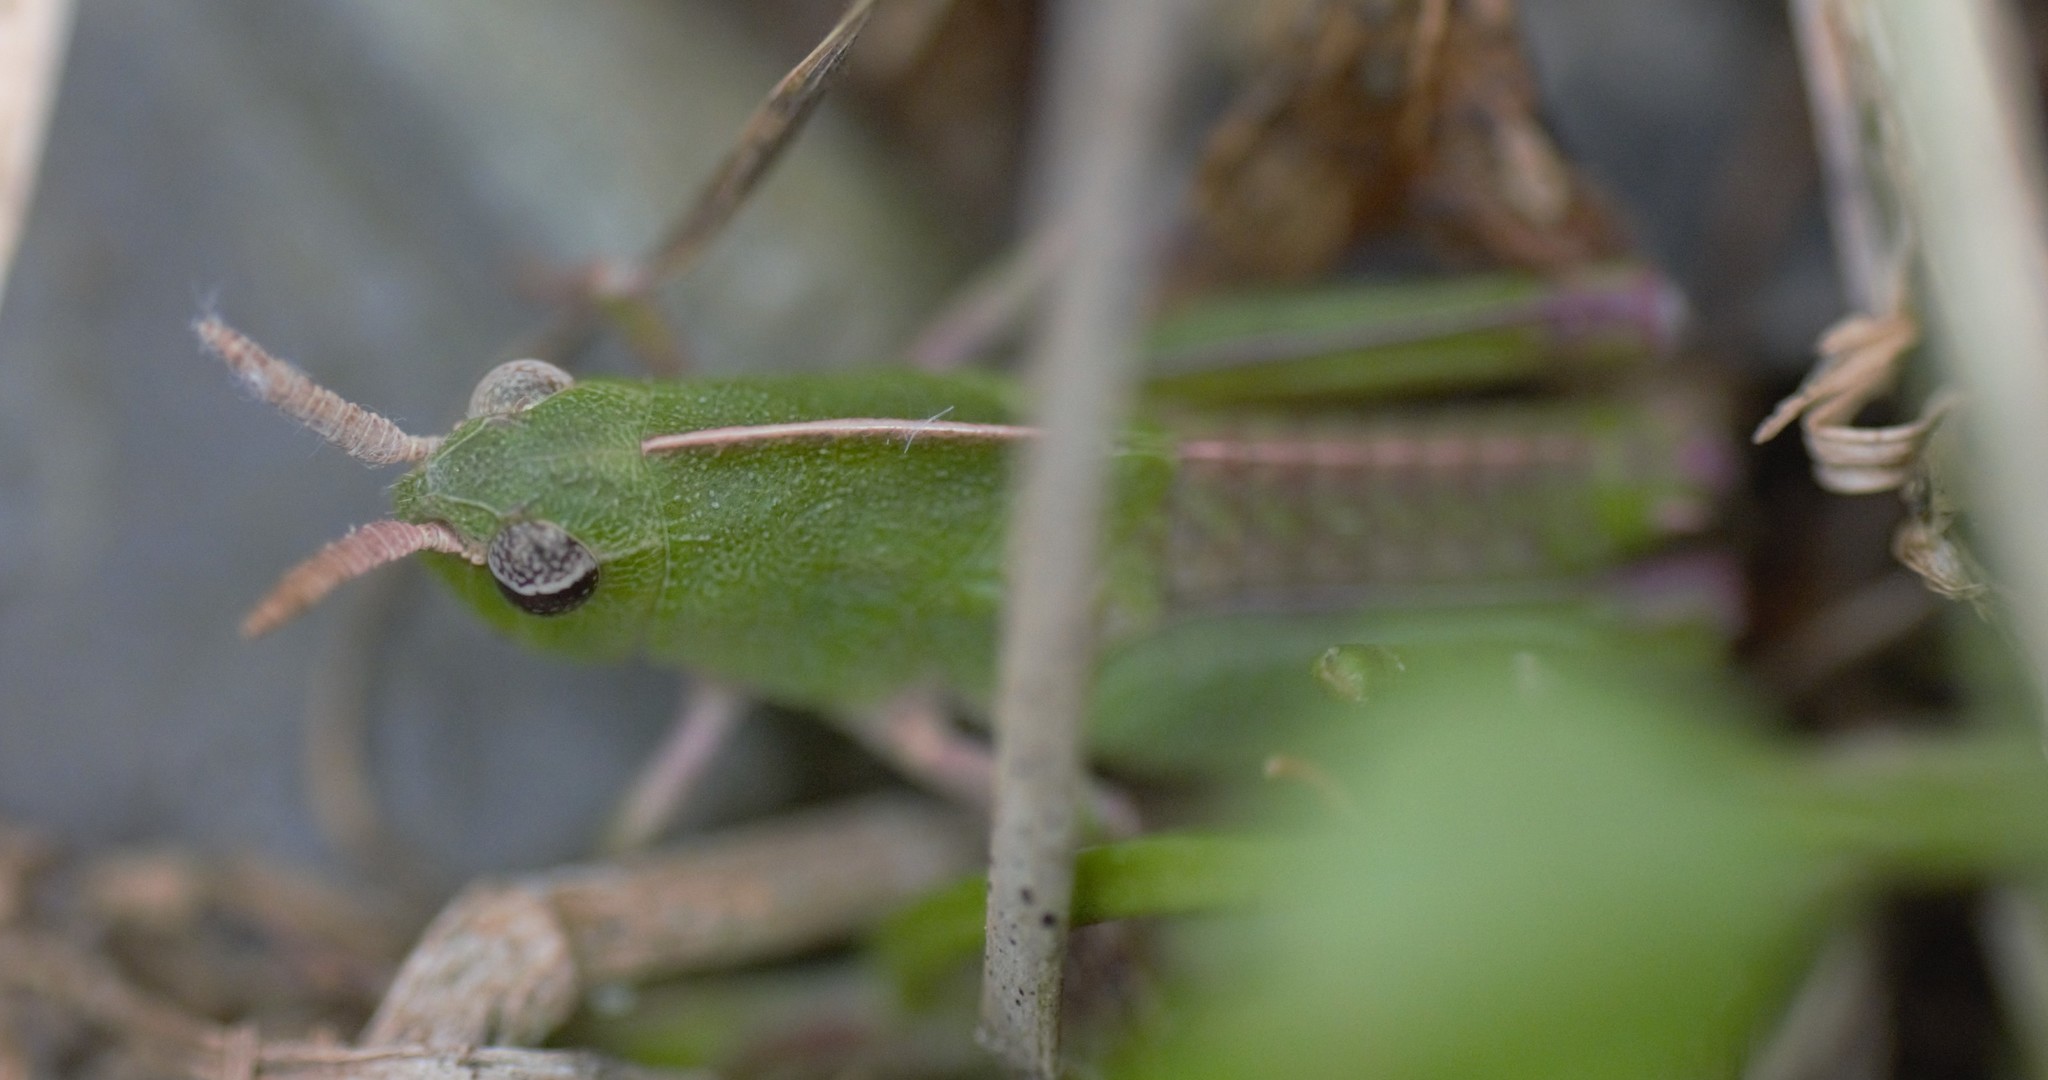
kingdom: Animalia
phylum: Arthropoda
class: Insecta
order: Orthoptera
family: Acrididae
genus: Chortophaga
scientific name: Chortophaga viridifasciata
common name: Green-striped grasshopper
